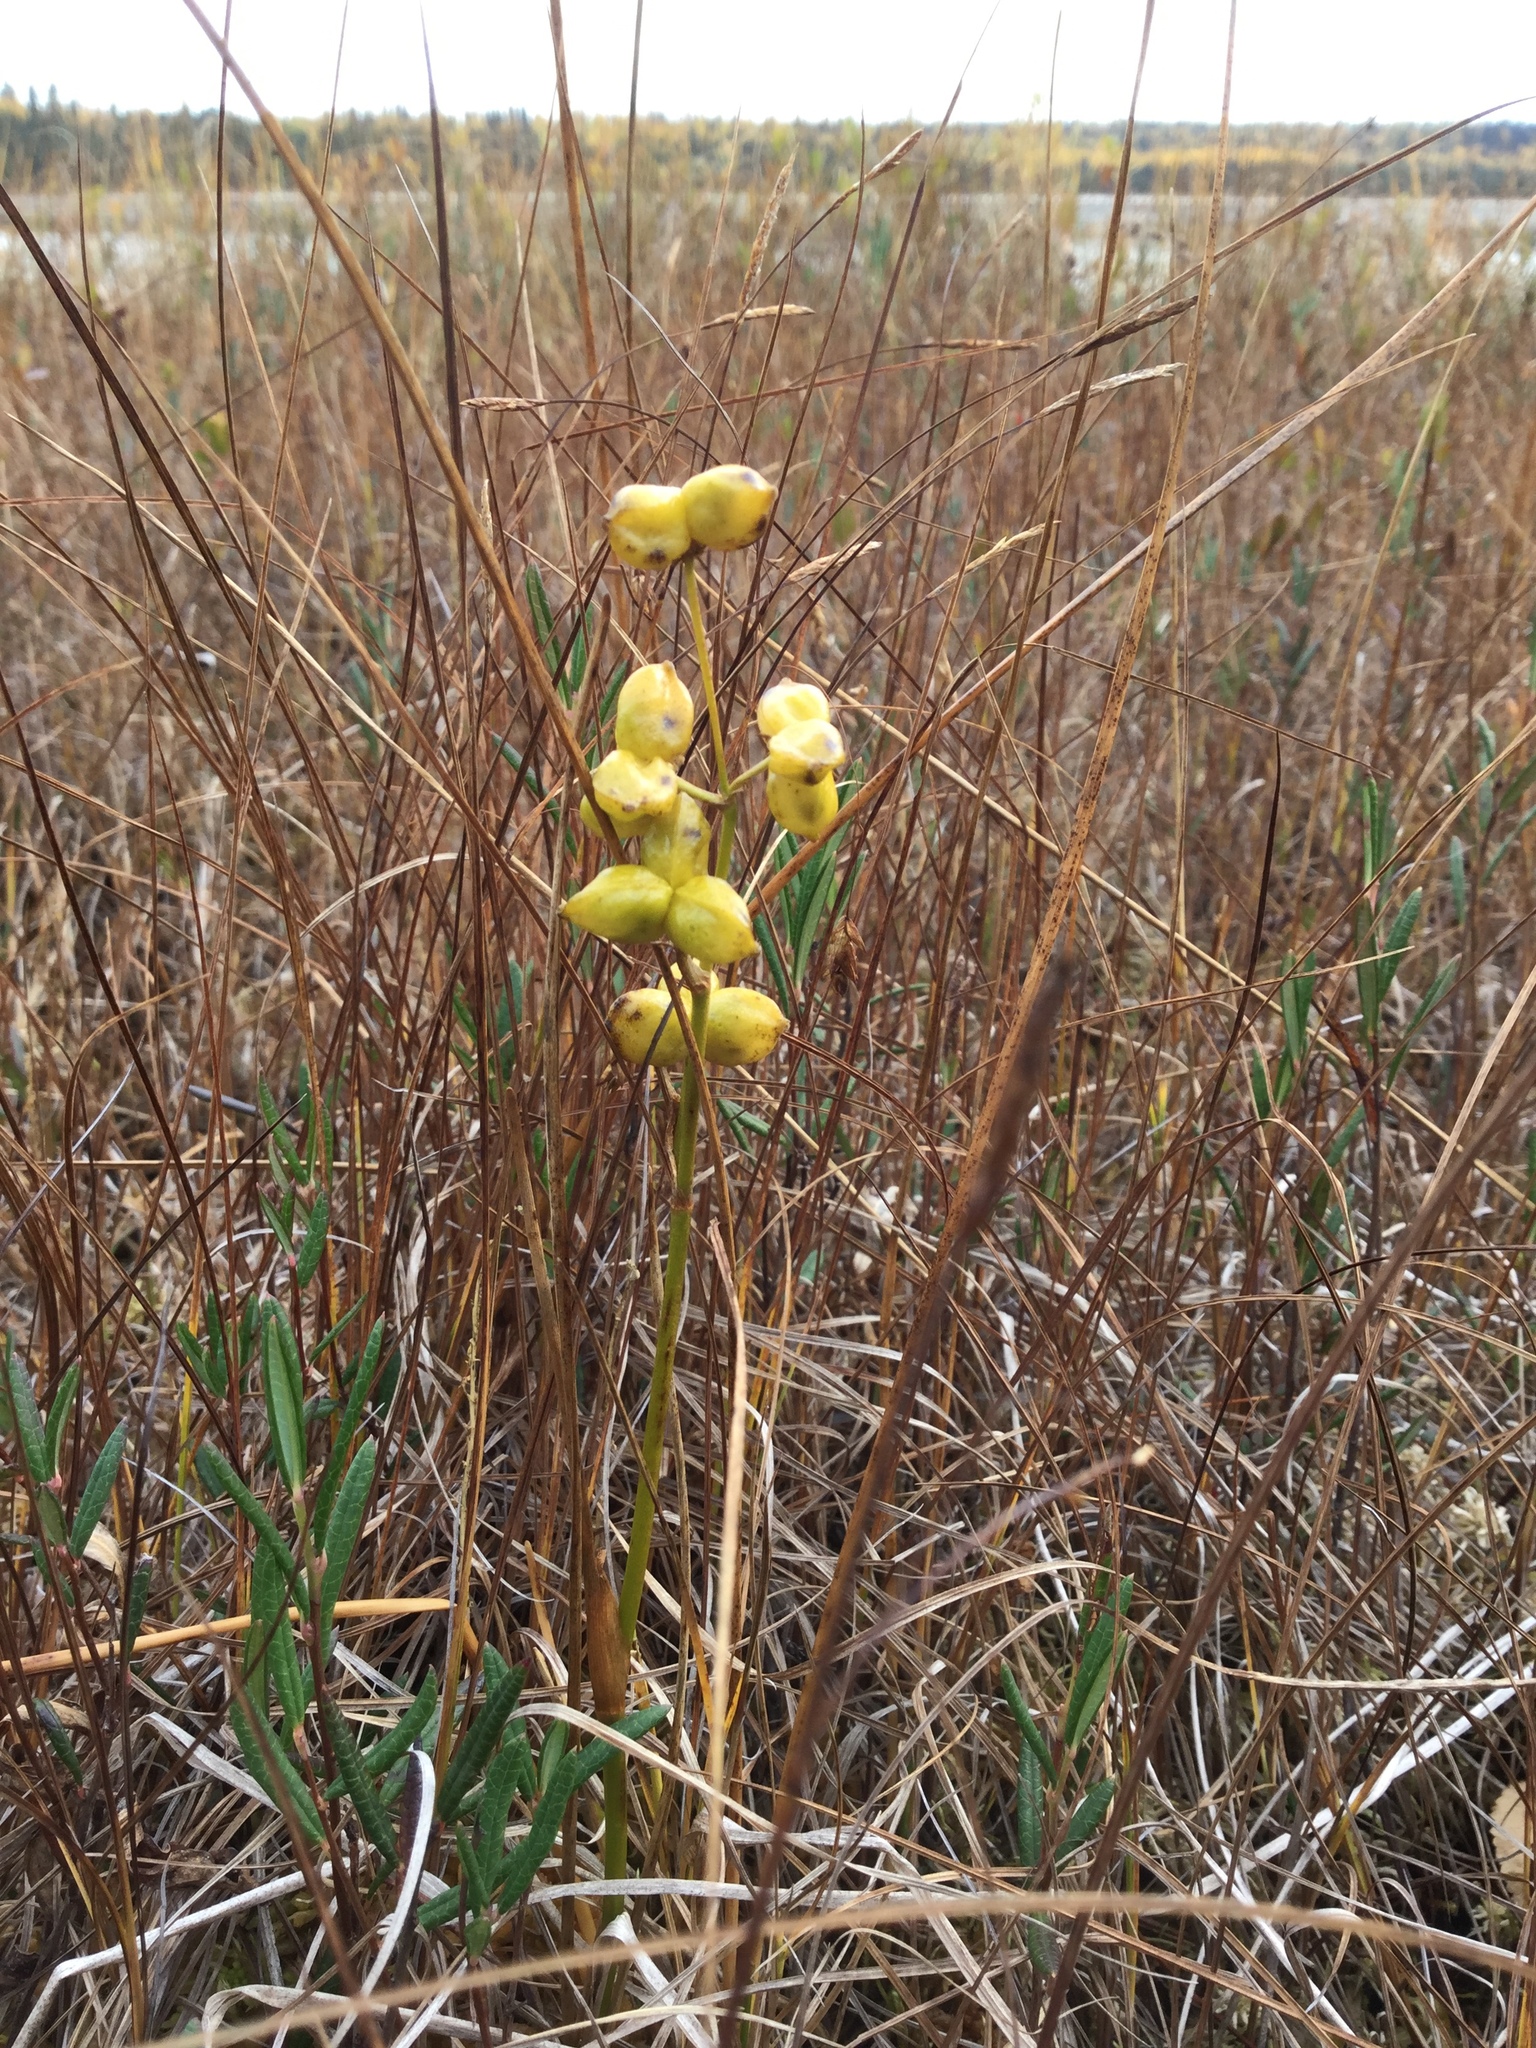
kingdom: Plantae
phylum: Tracheophyta
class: Liliopsida
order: Alismatales
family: Scheuchzeriaceae
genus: Scheuchzeria
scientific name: Scheuchzeria palustris
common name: Rannoch-rush
